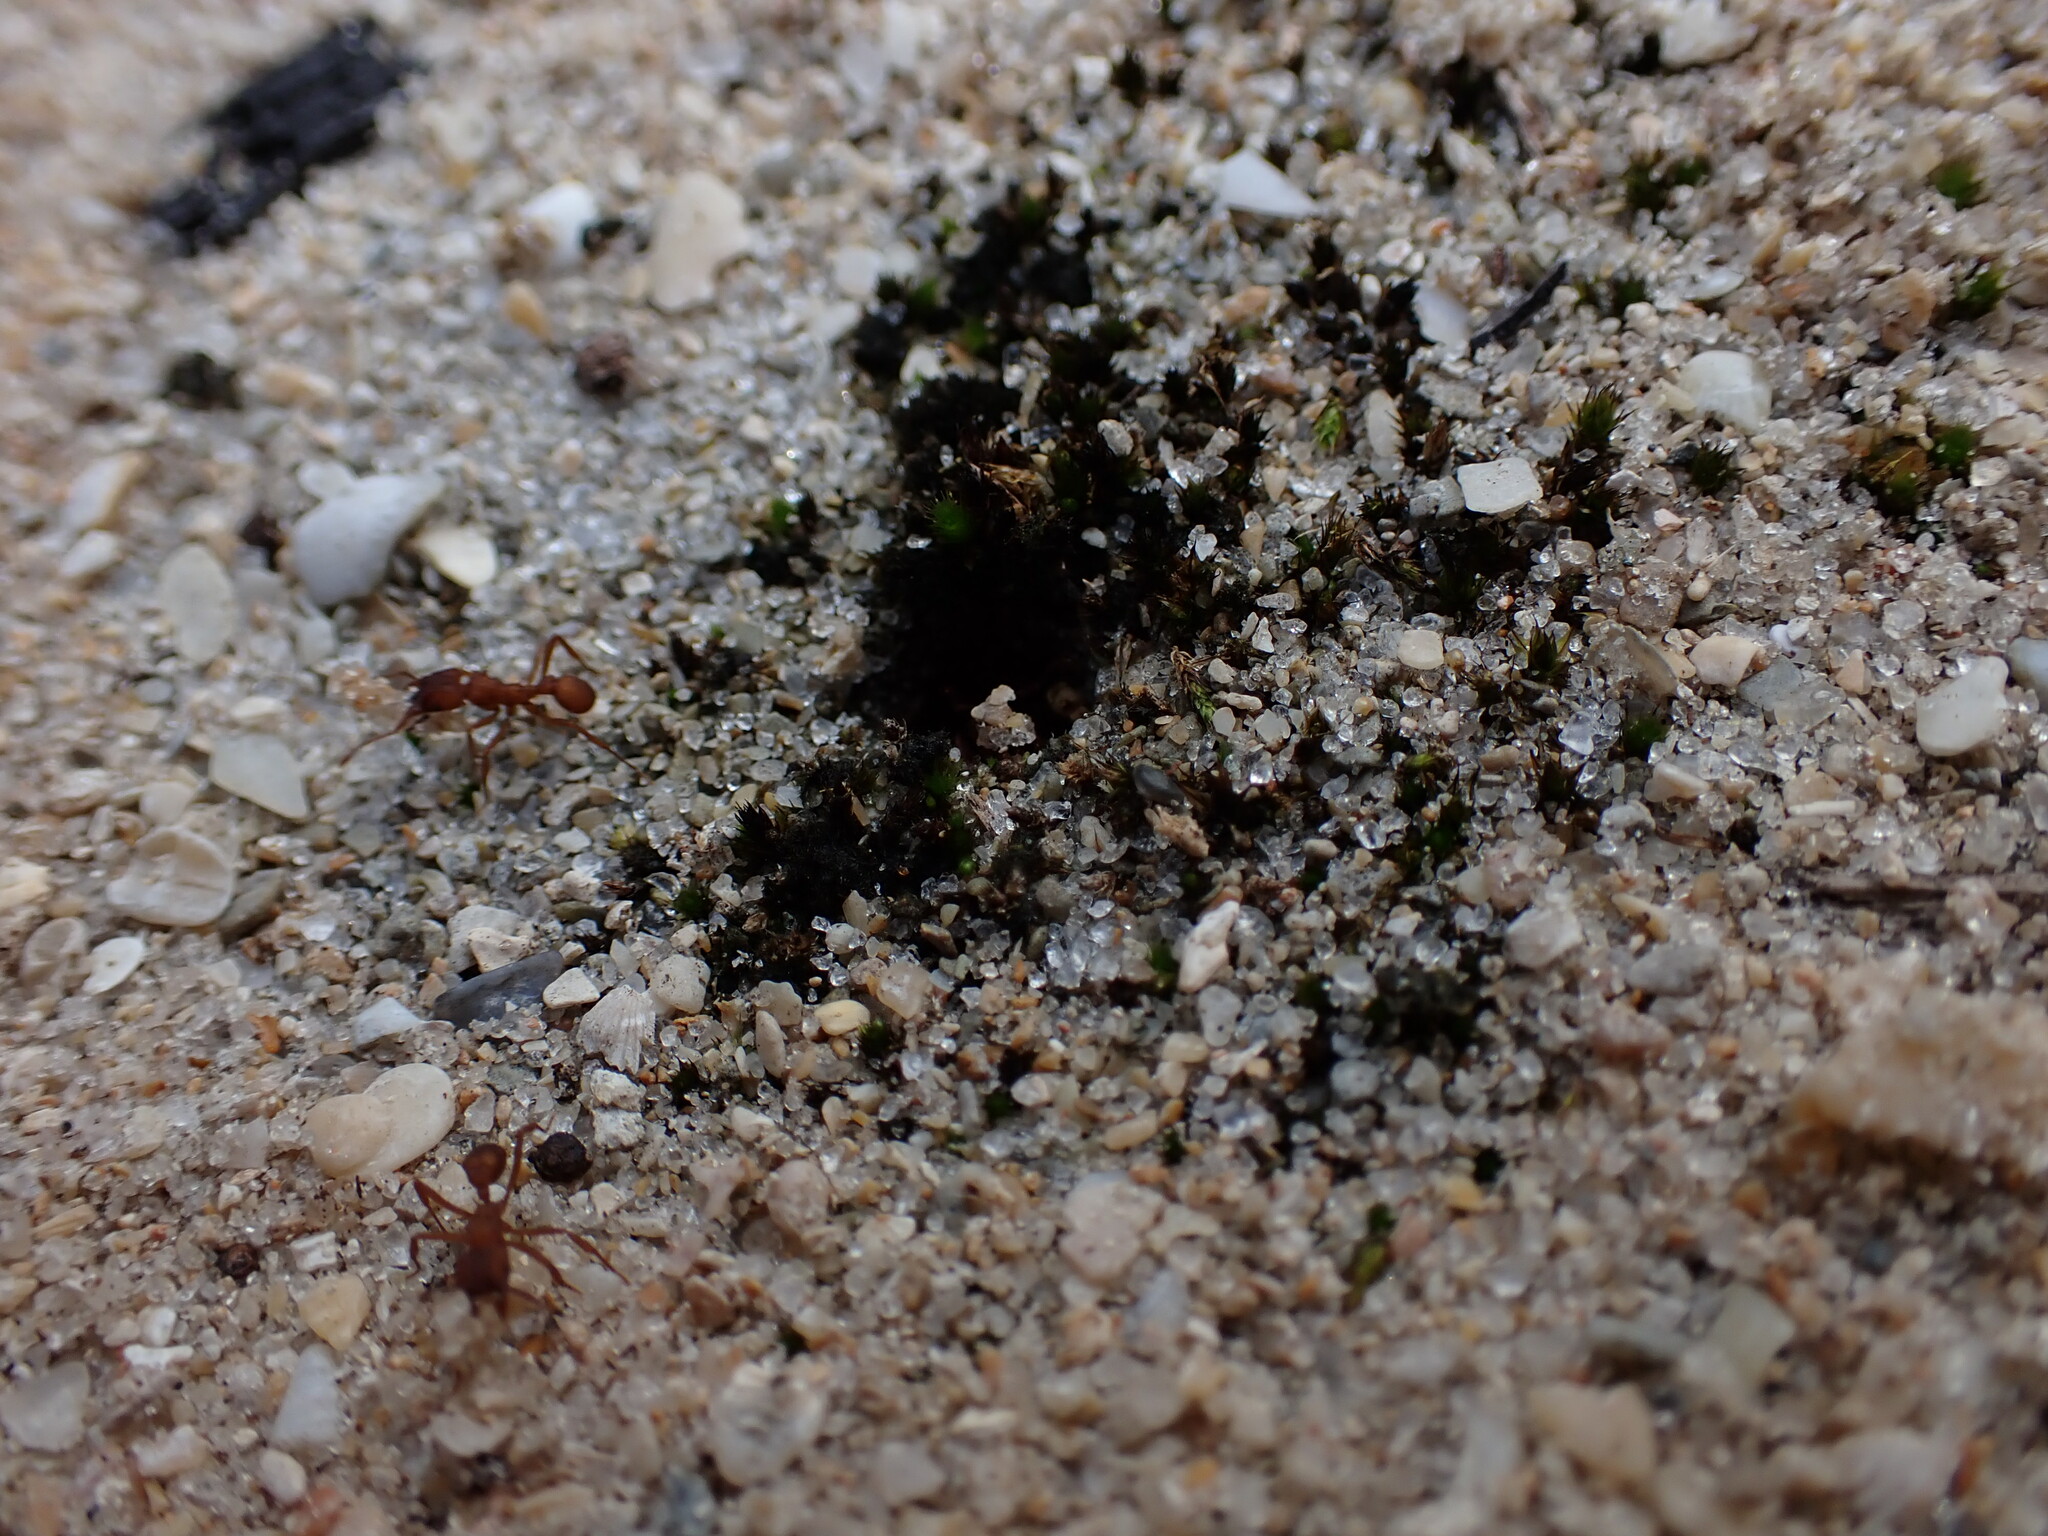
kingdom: Animalia
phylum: Arthropoda
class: Insecta
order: Hymenoptera
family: Formicidae
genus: Trachymyrmex
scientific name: Trachymyrmex septentrionalis
